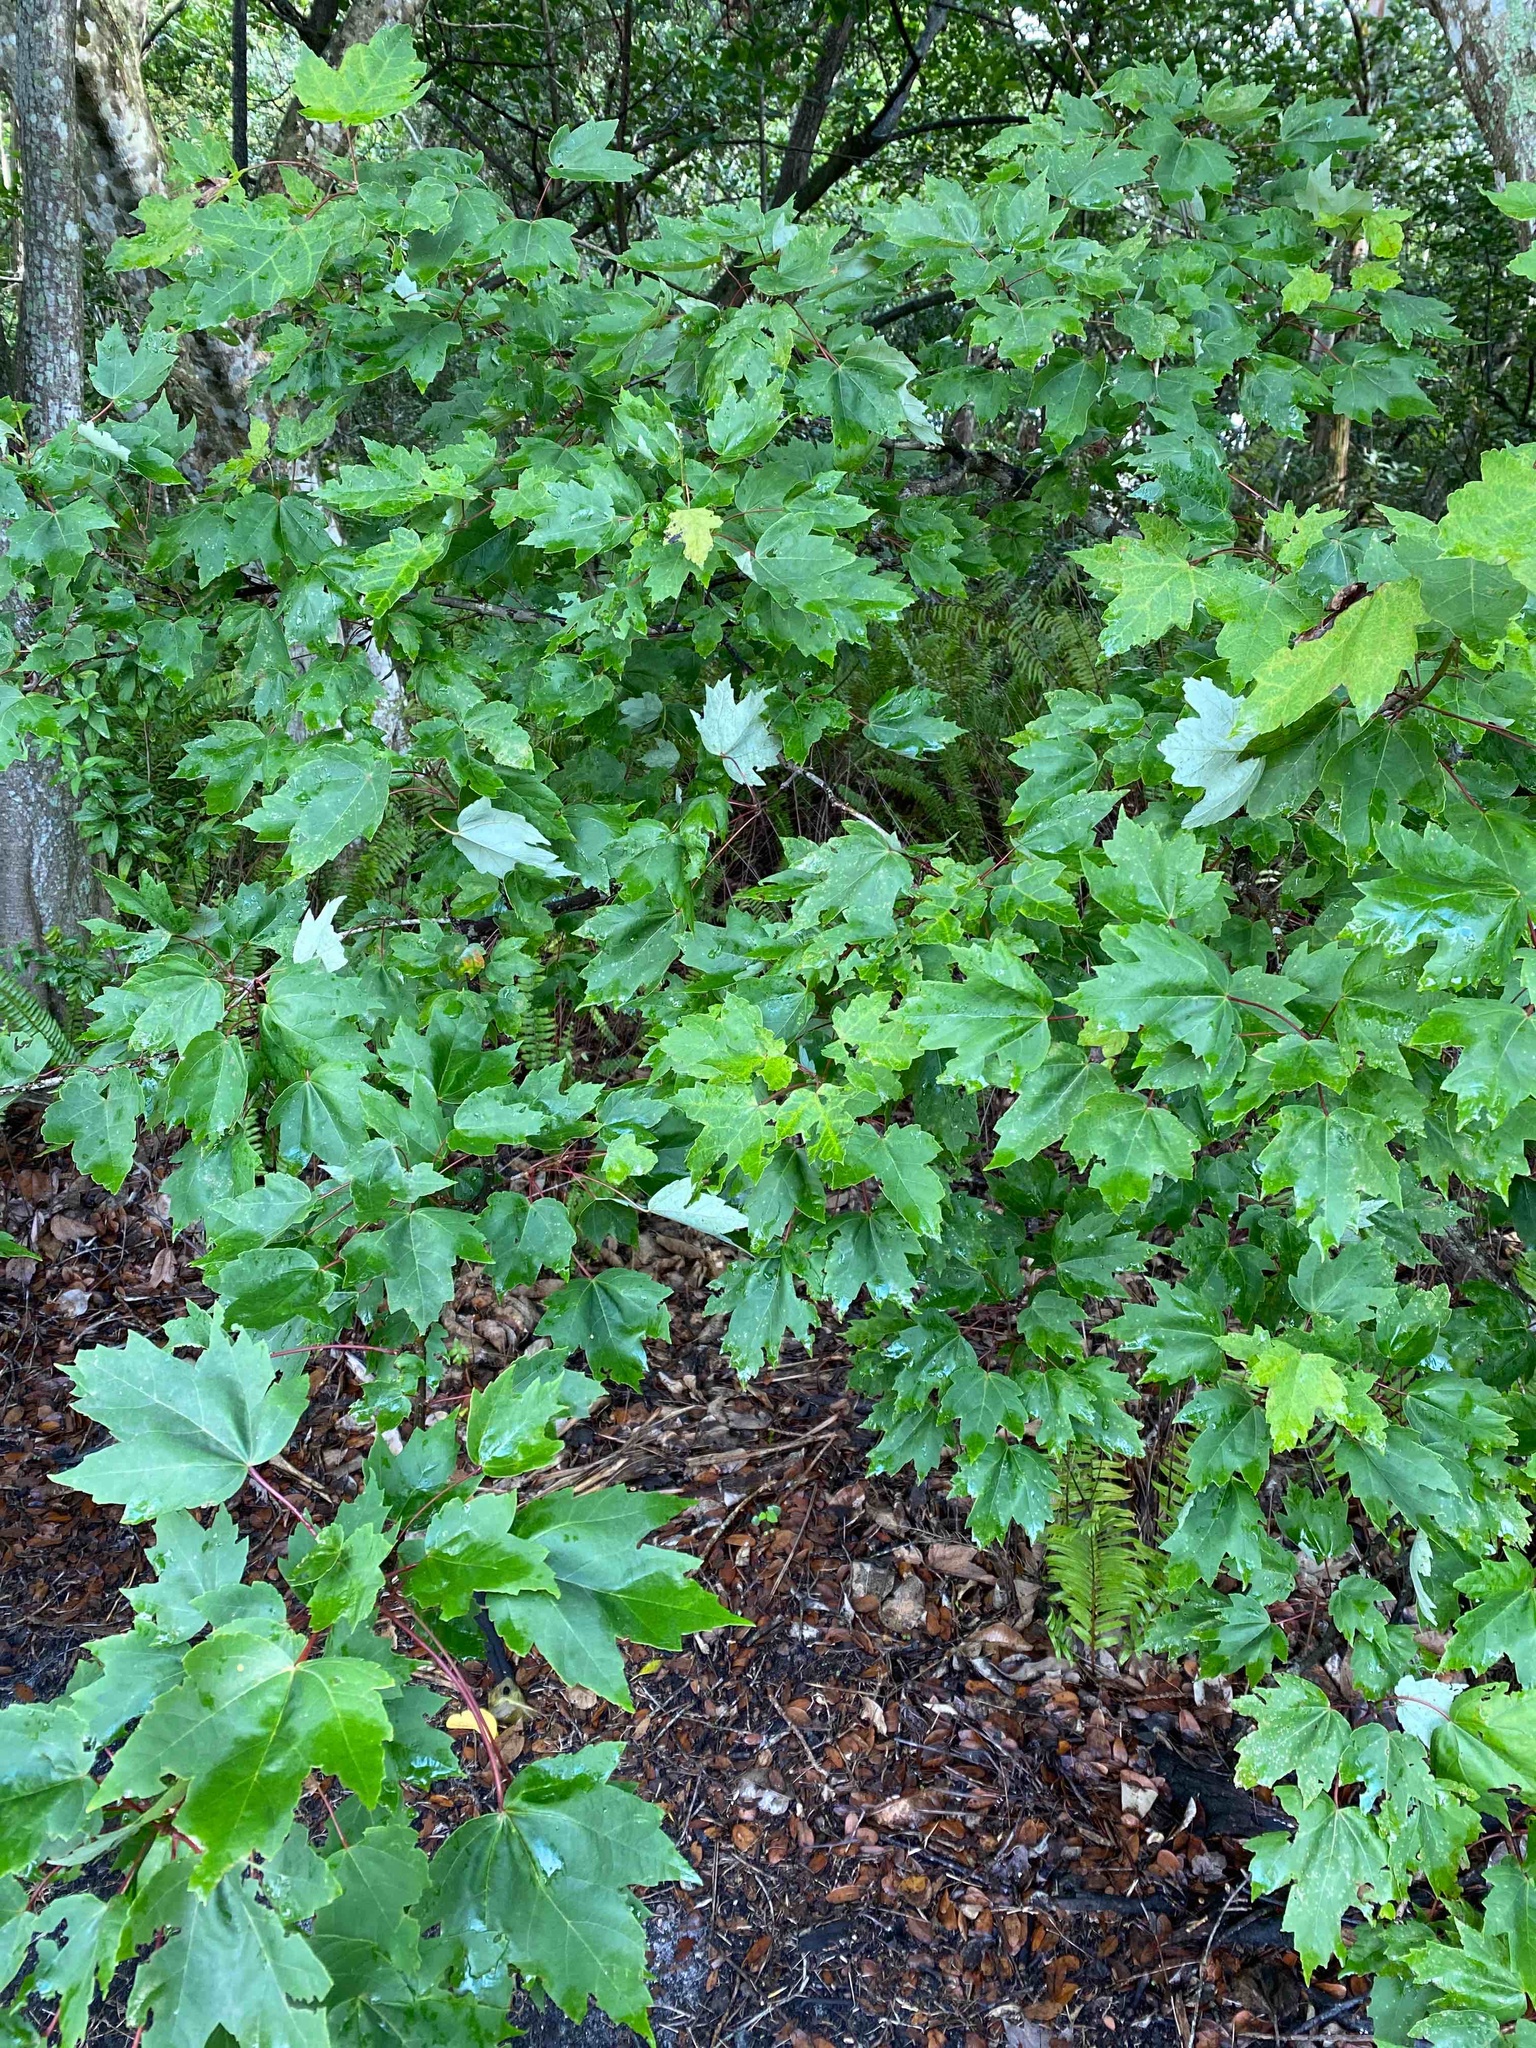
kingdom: Plantae
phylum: Tracheophyta
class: Magnoliopsida
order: Sapindales
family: Sapindaceae
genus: Acer
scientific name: Acer rubrum
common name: Red maple
